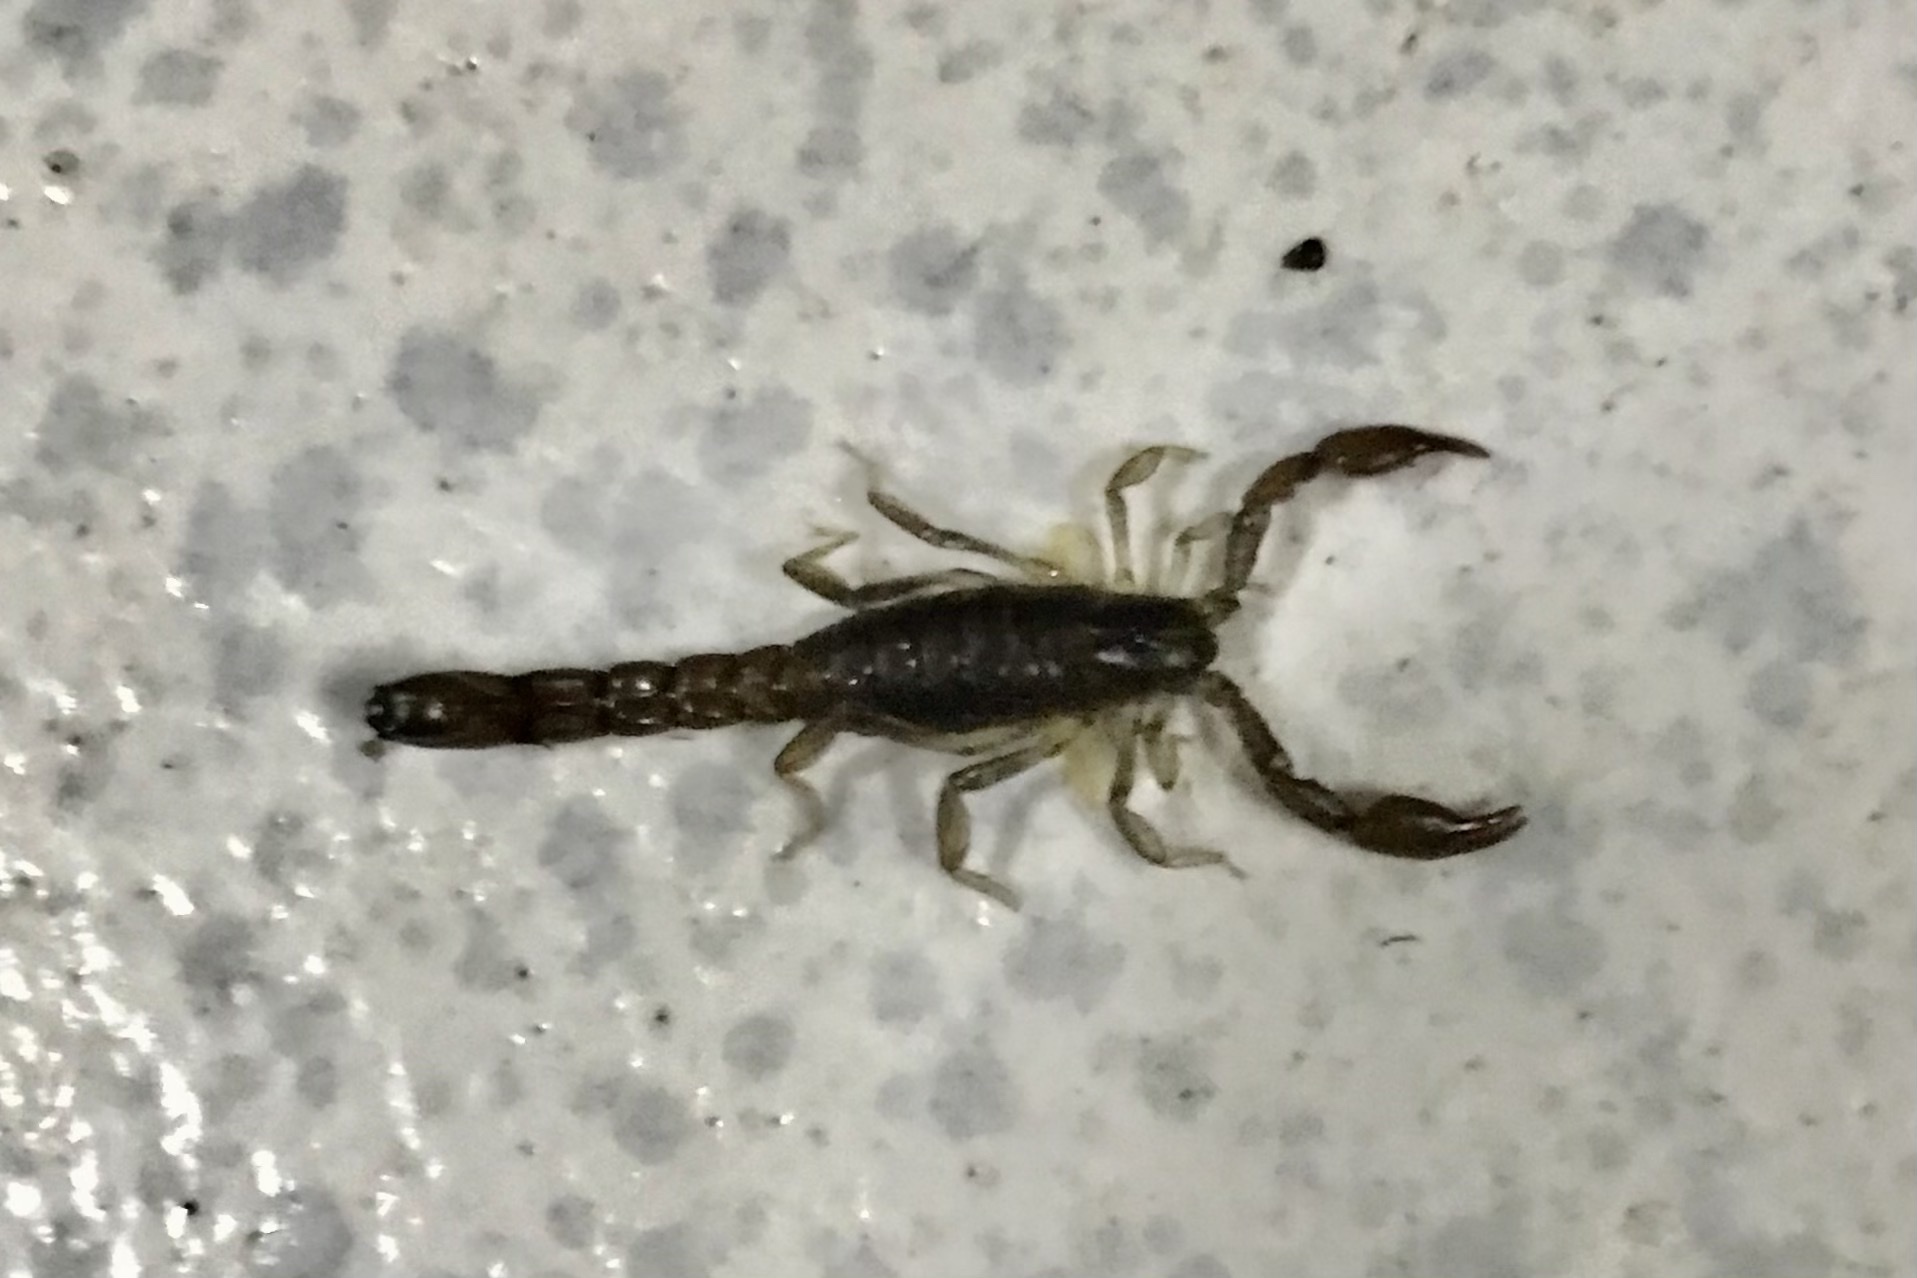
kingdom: Animalia
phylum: Arthropoda
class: Arachnida
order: Scorpiones
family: Bothriuridae
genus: Bothriurus
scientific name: Bothriurus asper
